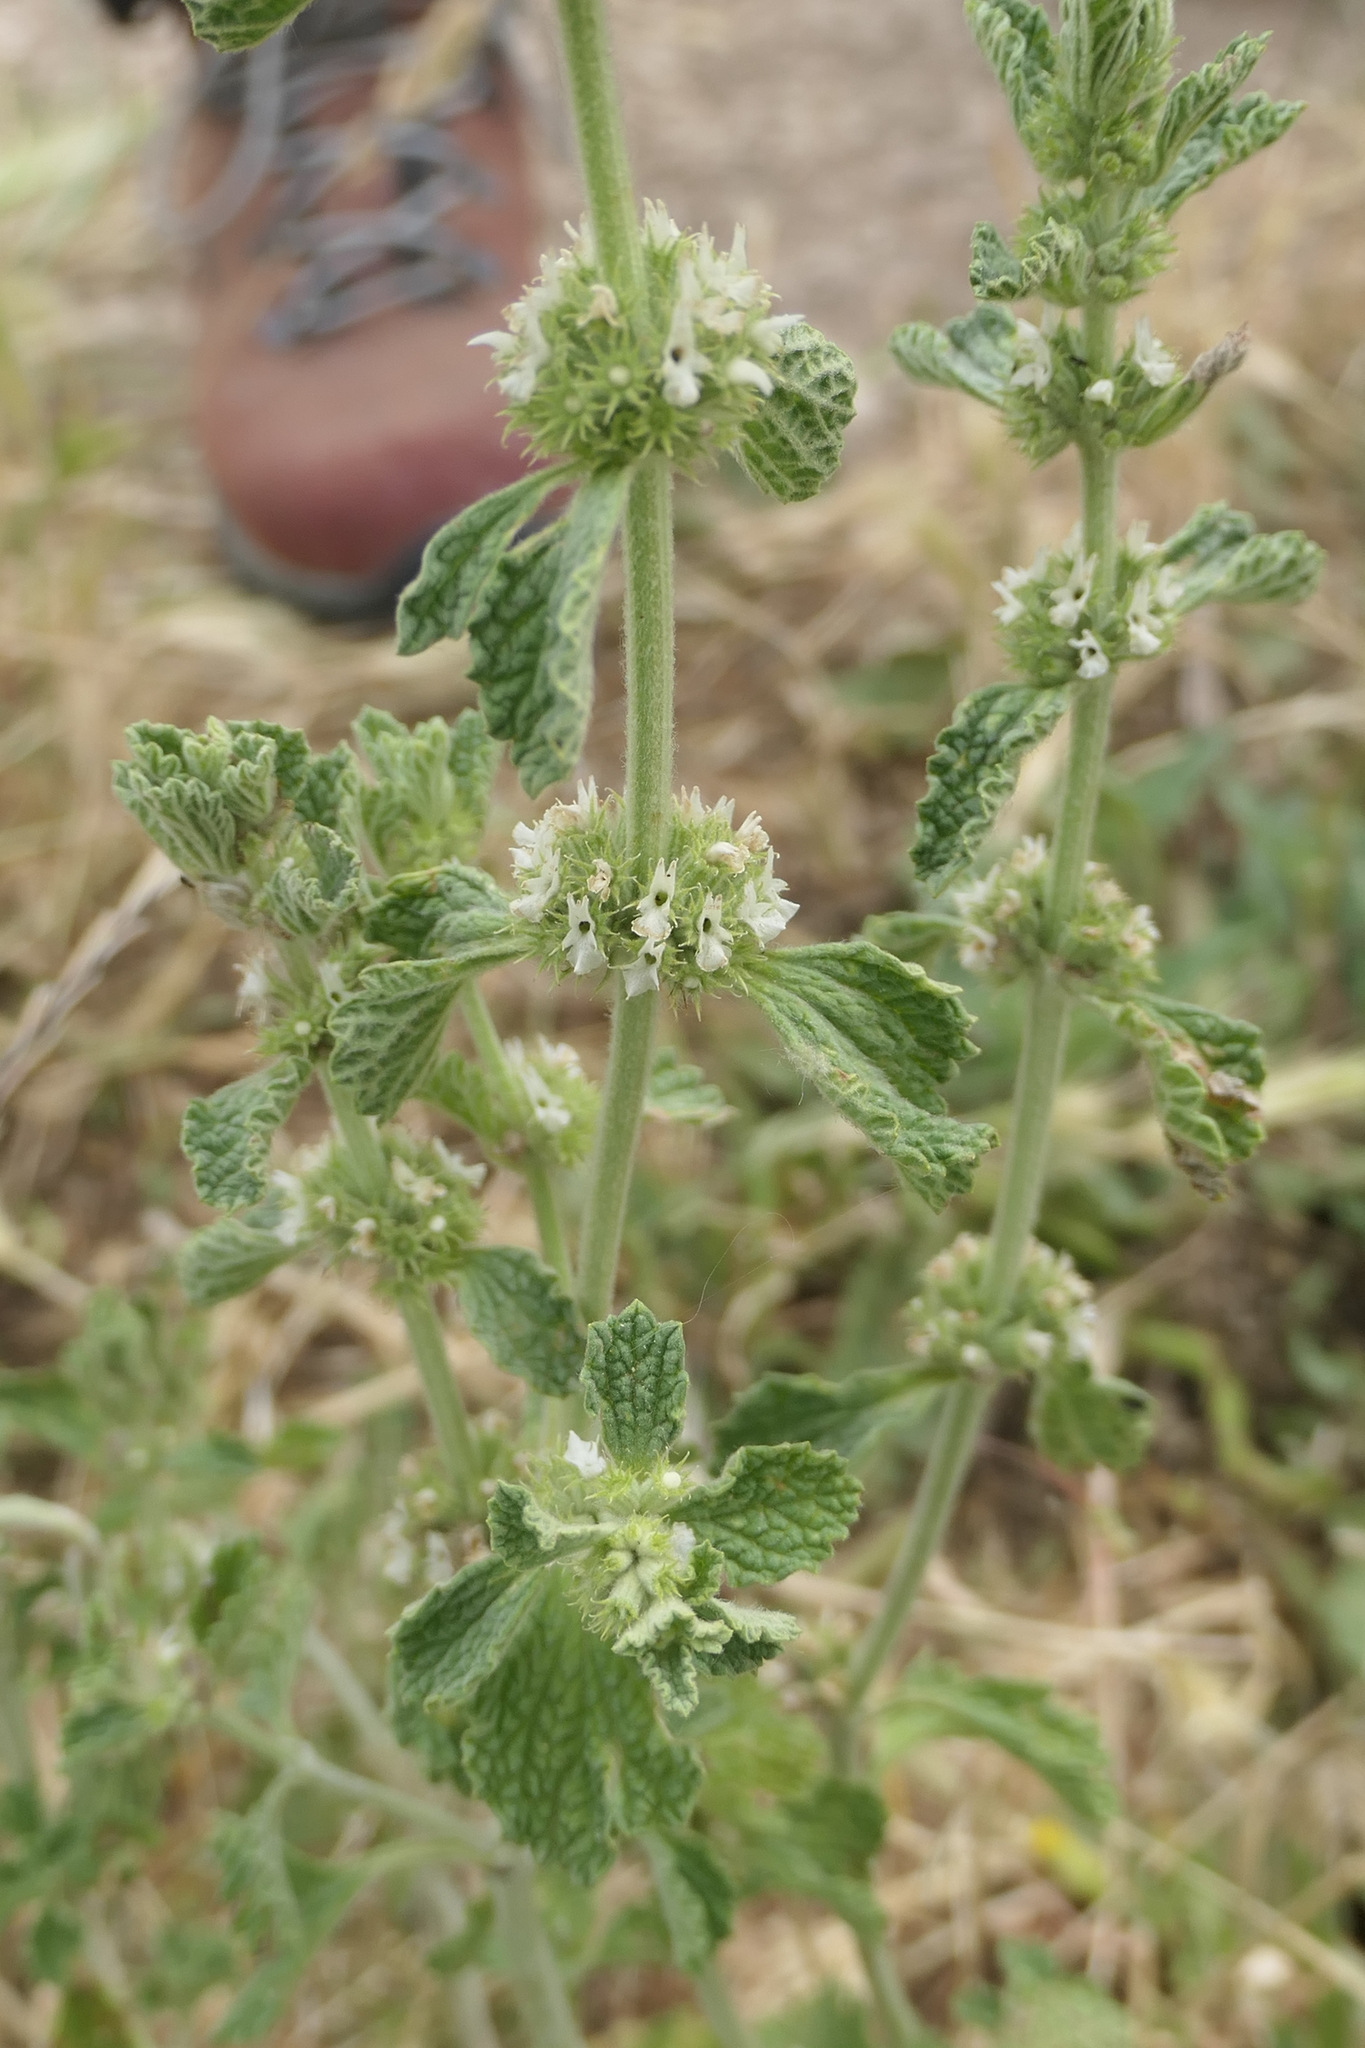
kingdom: Plantae
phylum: Tracheophyta
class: Magnoliopsida
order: Lamiales
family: Lamiaceae
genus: Marrubium
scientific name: Marrubium vulgare
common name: Horehound
